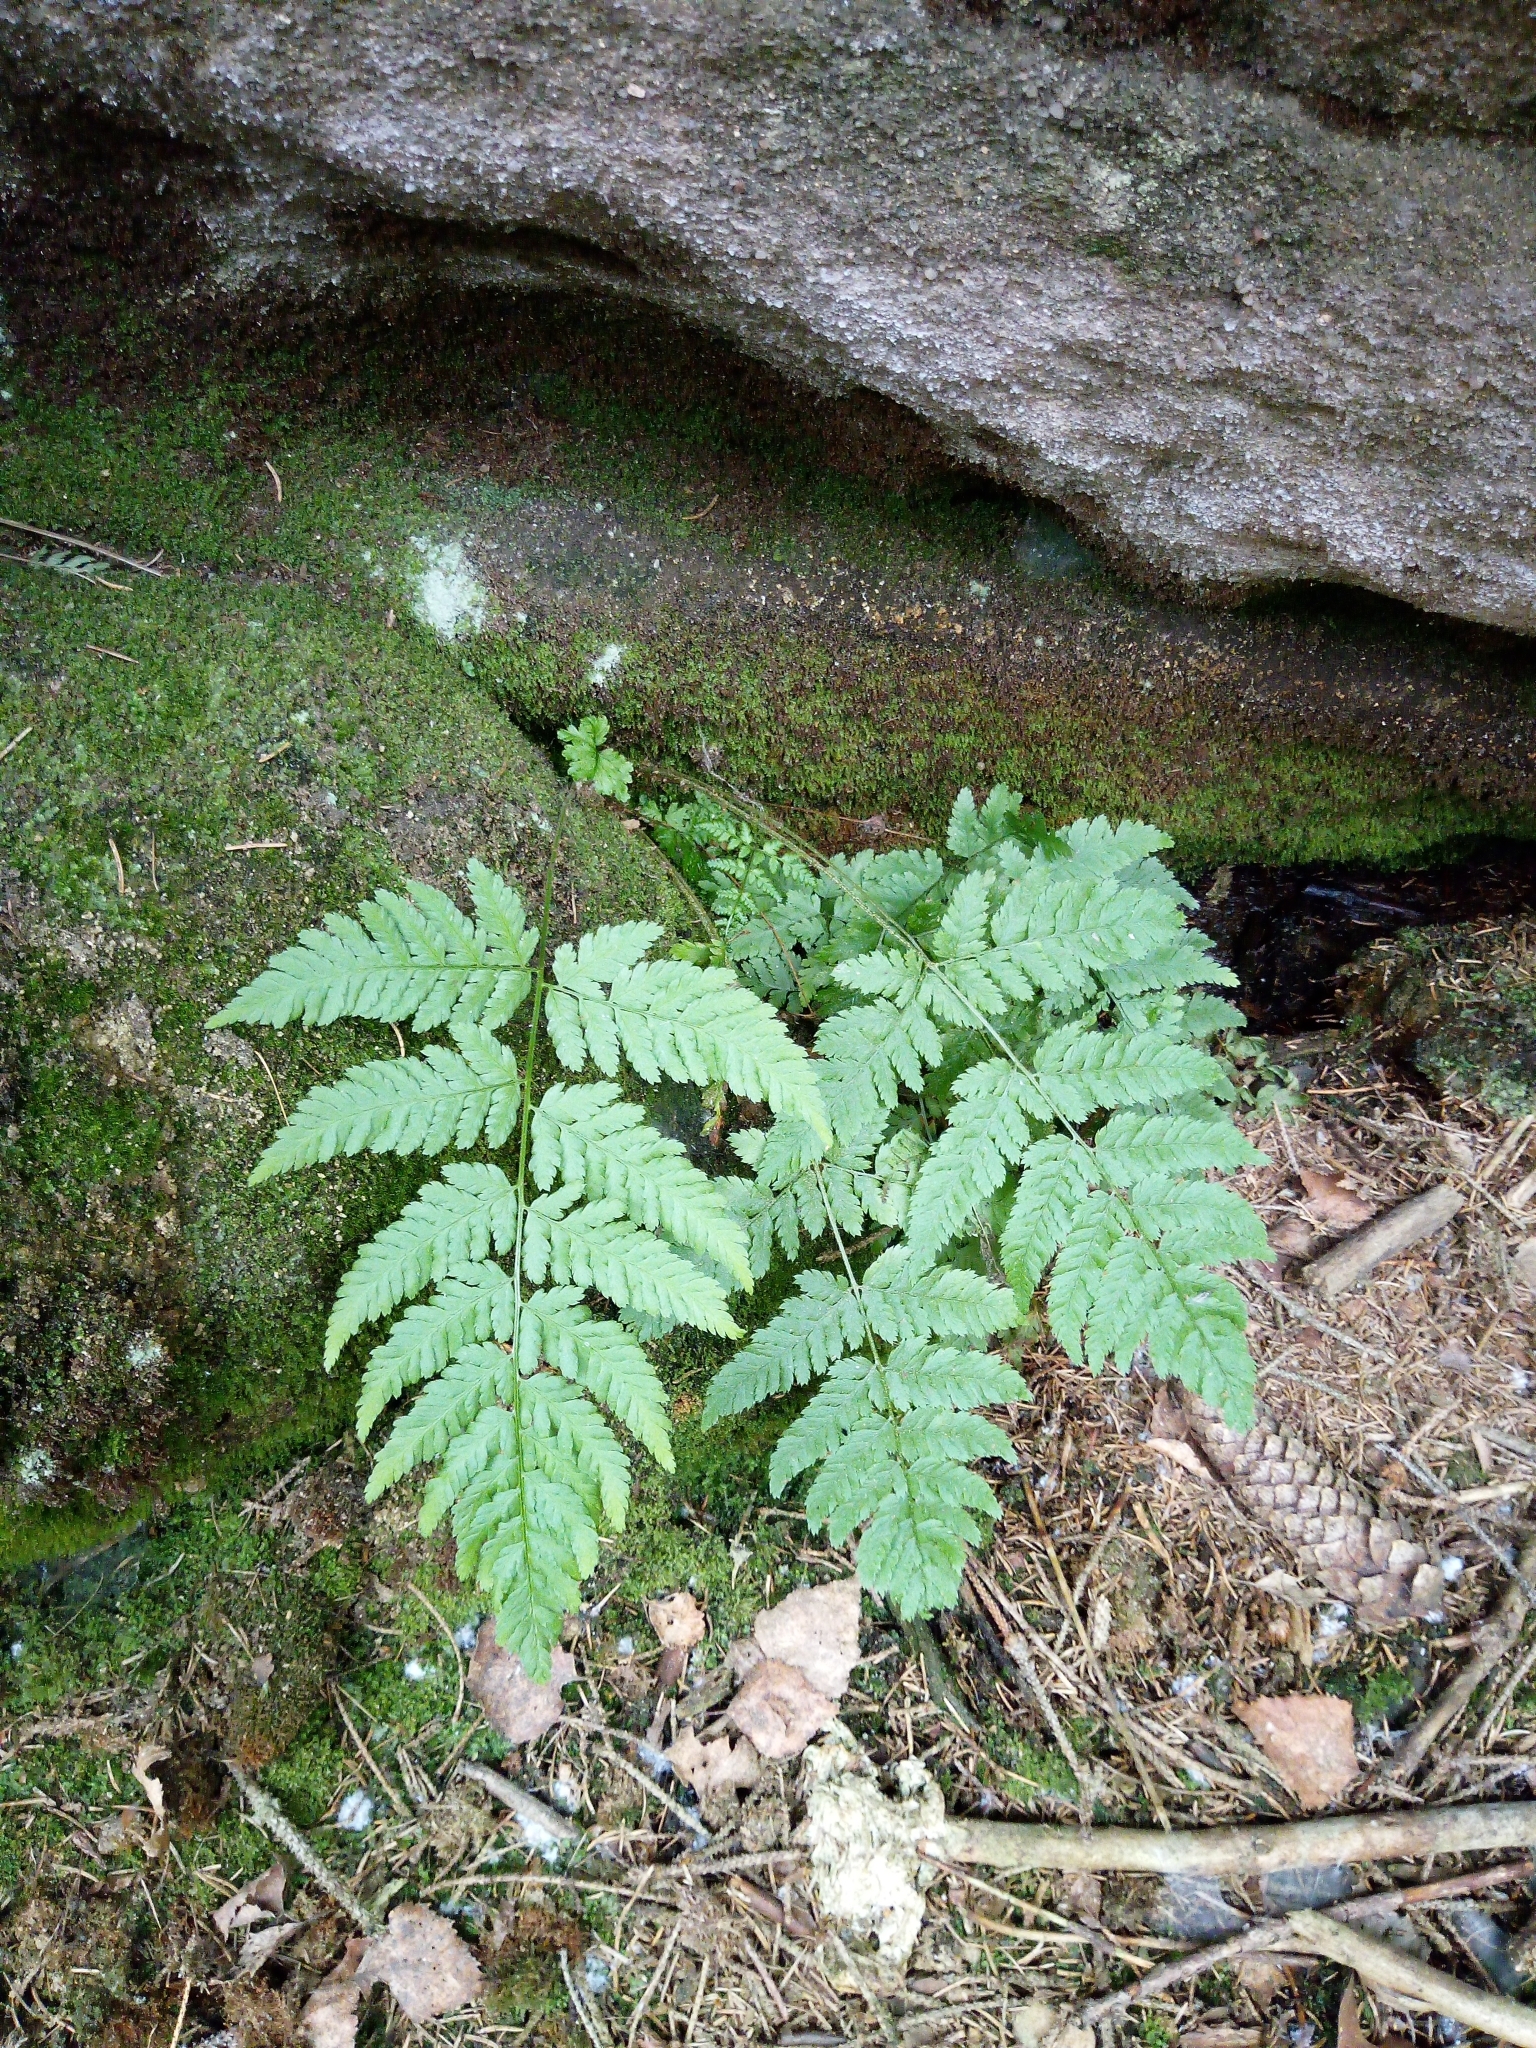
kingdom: Plantae
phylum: Tracheophyta
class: Polypodiopsida
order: Polypodiales
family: Dryopteridaceae
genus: Dryopteris
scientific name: Dryopteris dilatata
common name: Broad buckler-fern
